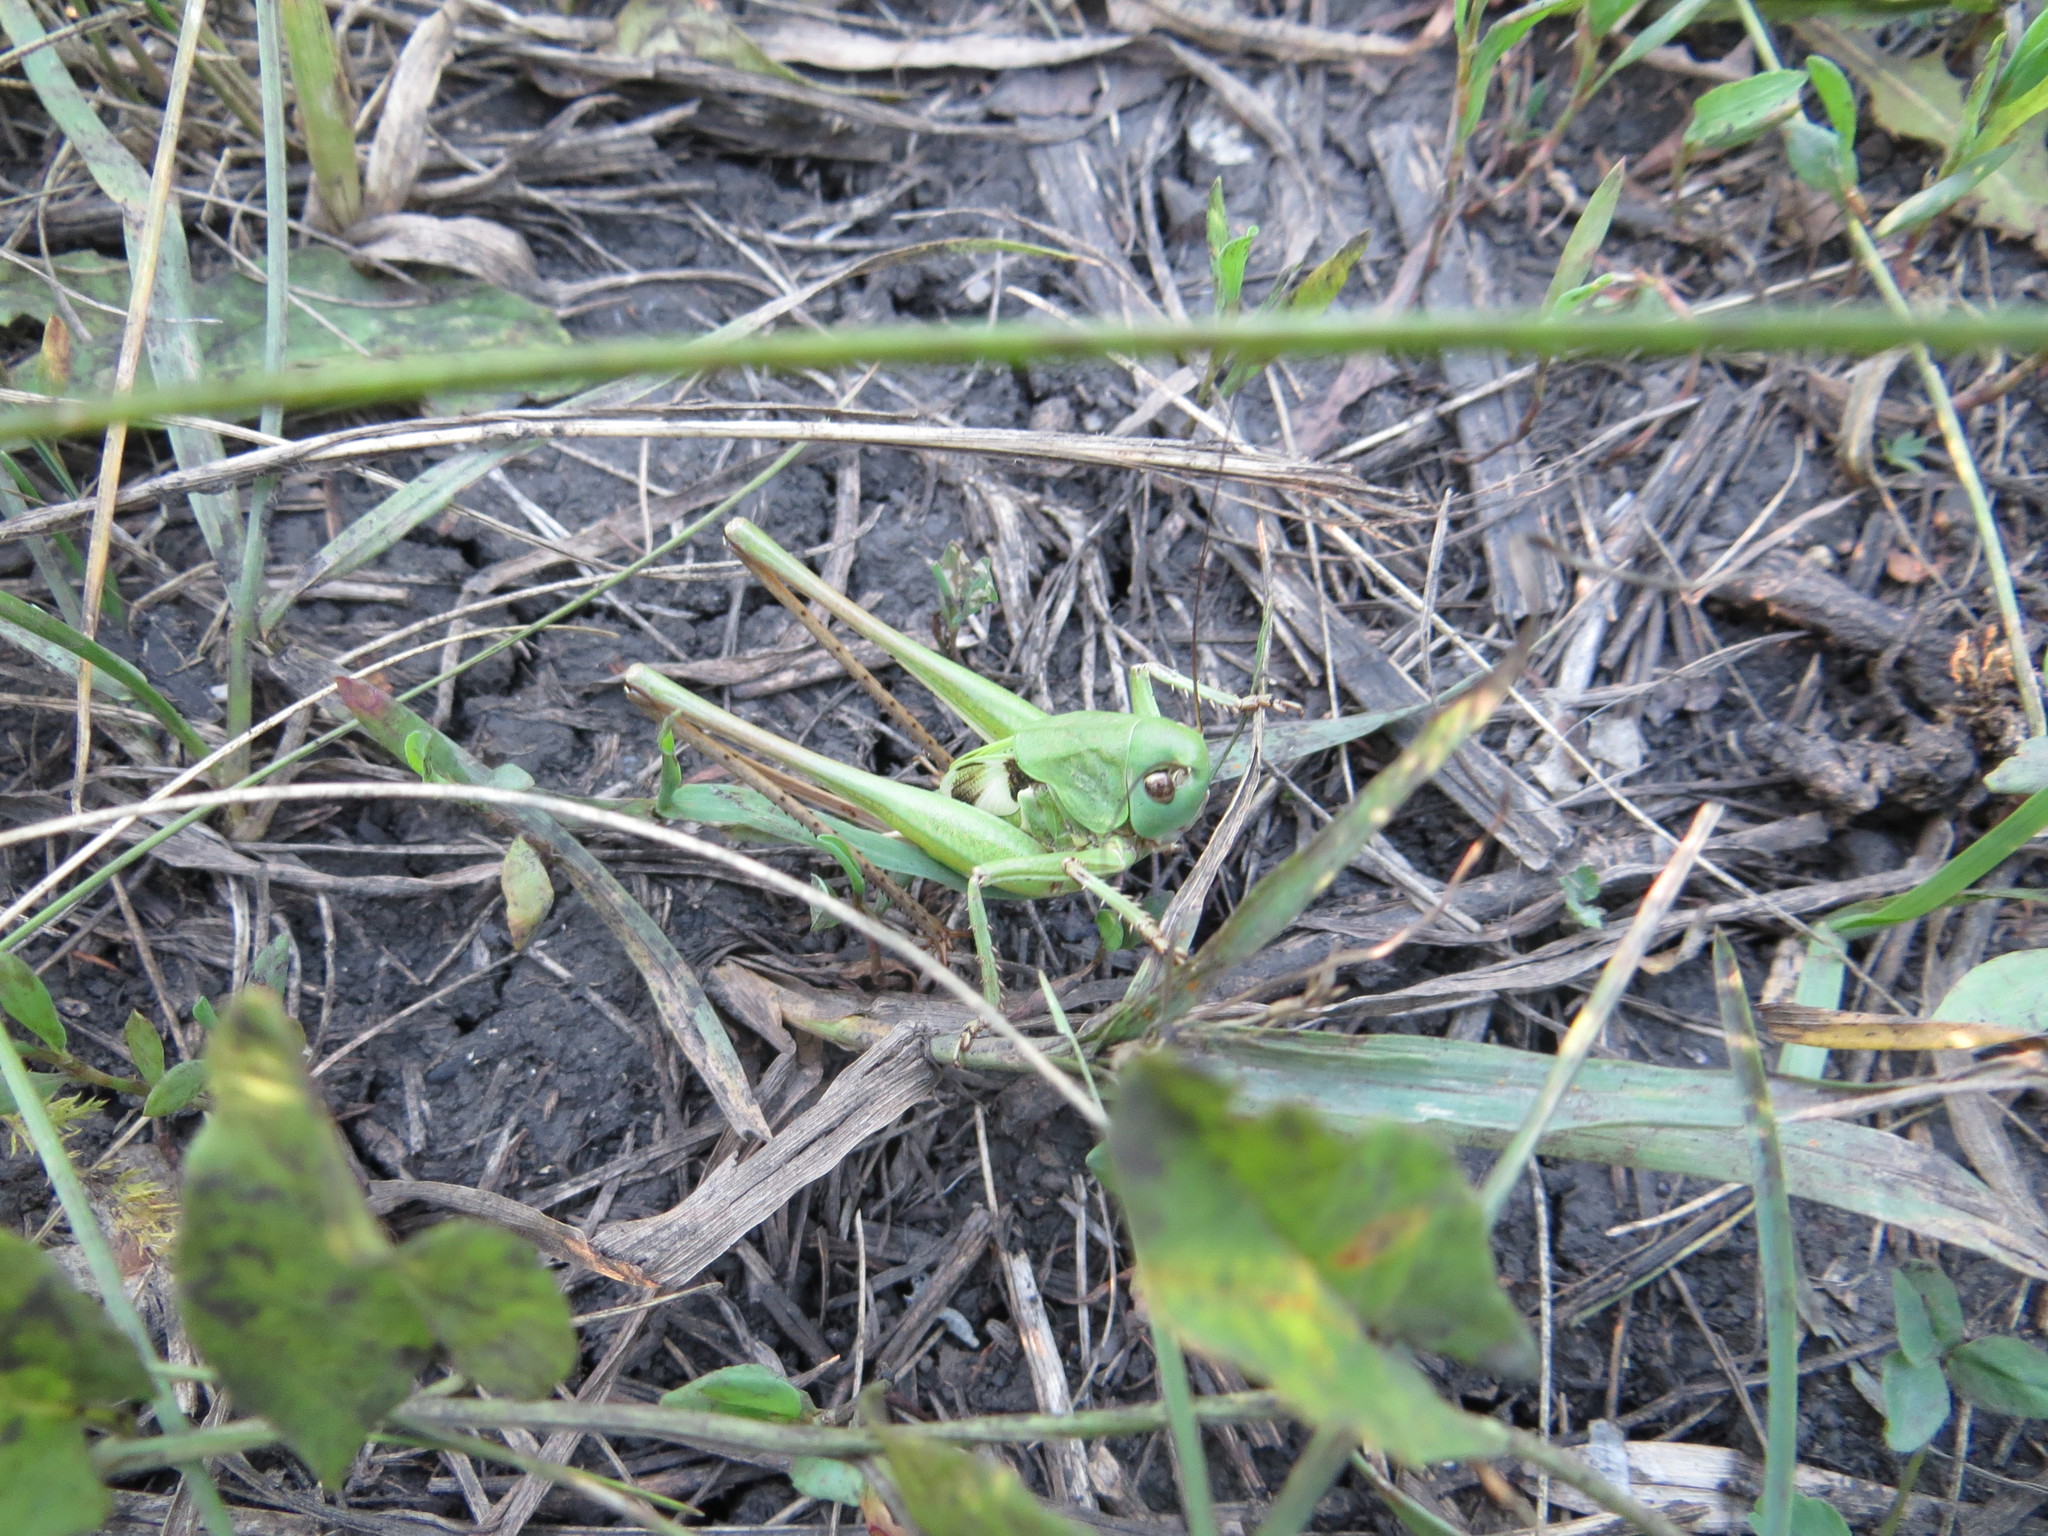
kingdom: Animalia
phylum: Arthropoda
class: Insecta
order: Orthoptera
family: Tettigoniidae
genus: Decticus
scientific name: Decticus verrucivorus
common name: Wart-biter
